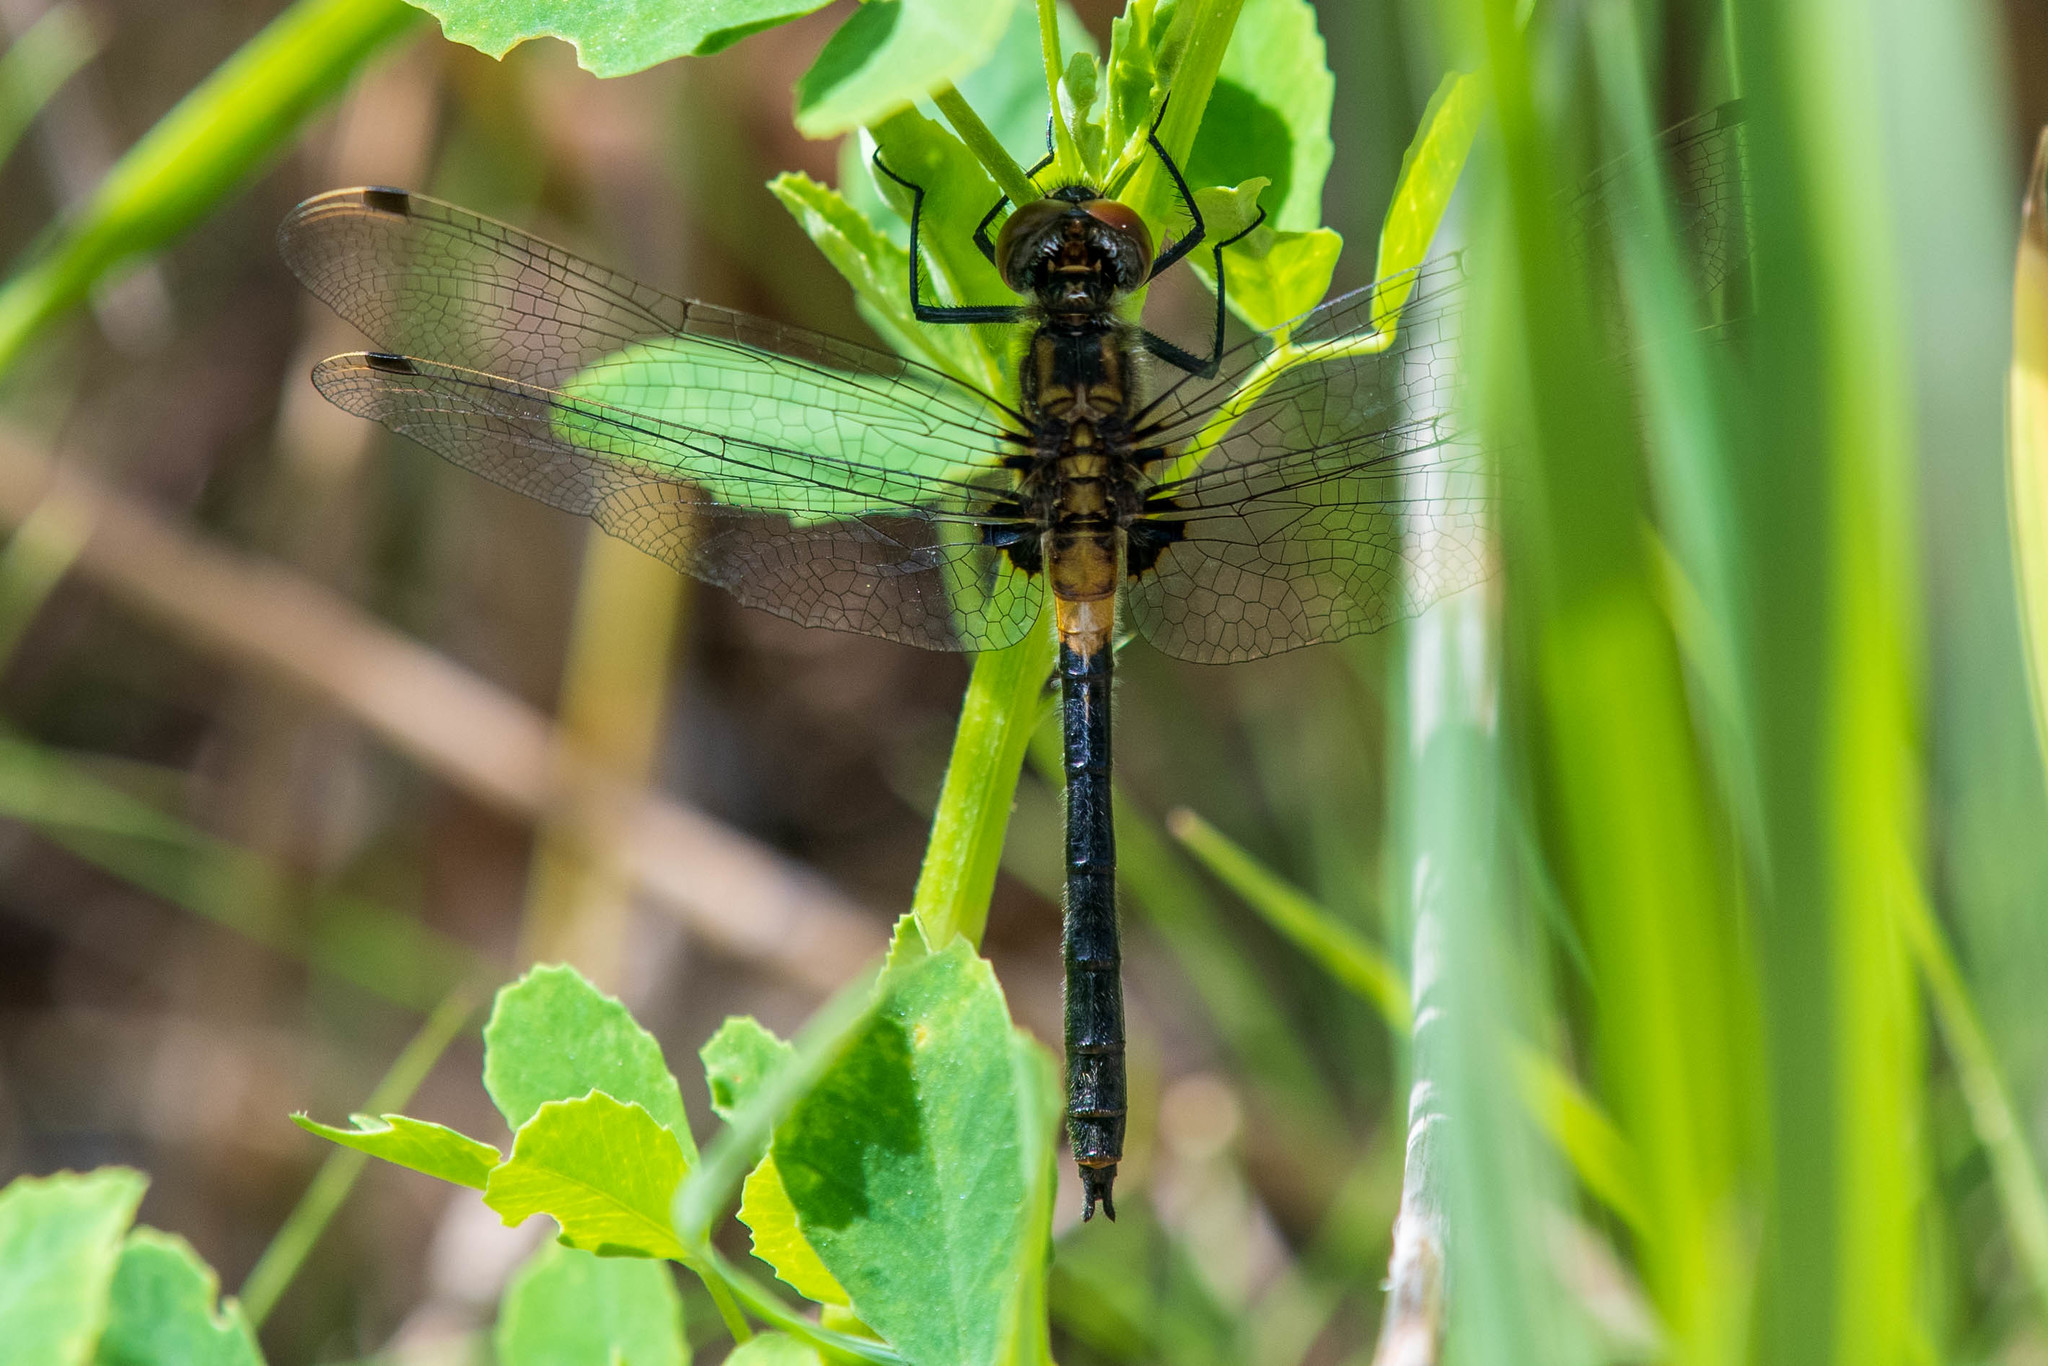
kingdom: Animalia
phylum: Arthropoda
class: Insecta
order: Odonata
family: Libellulidae
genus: Leucorrhinia
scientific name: Leucorrhinia proxima
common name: Belted whiteface
